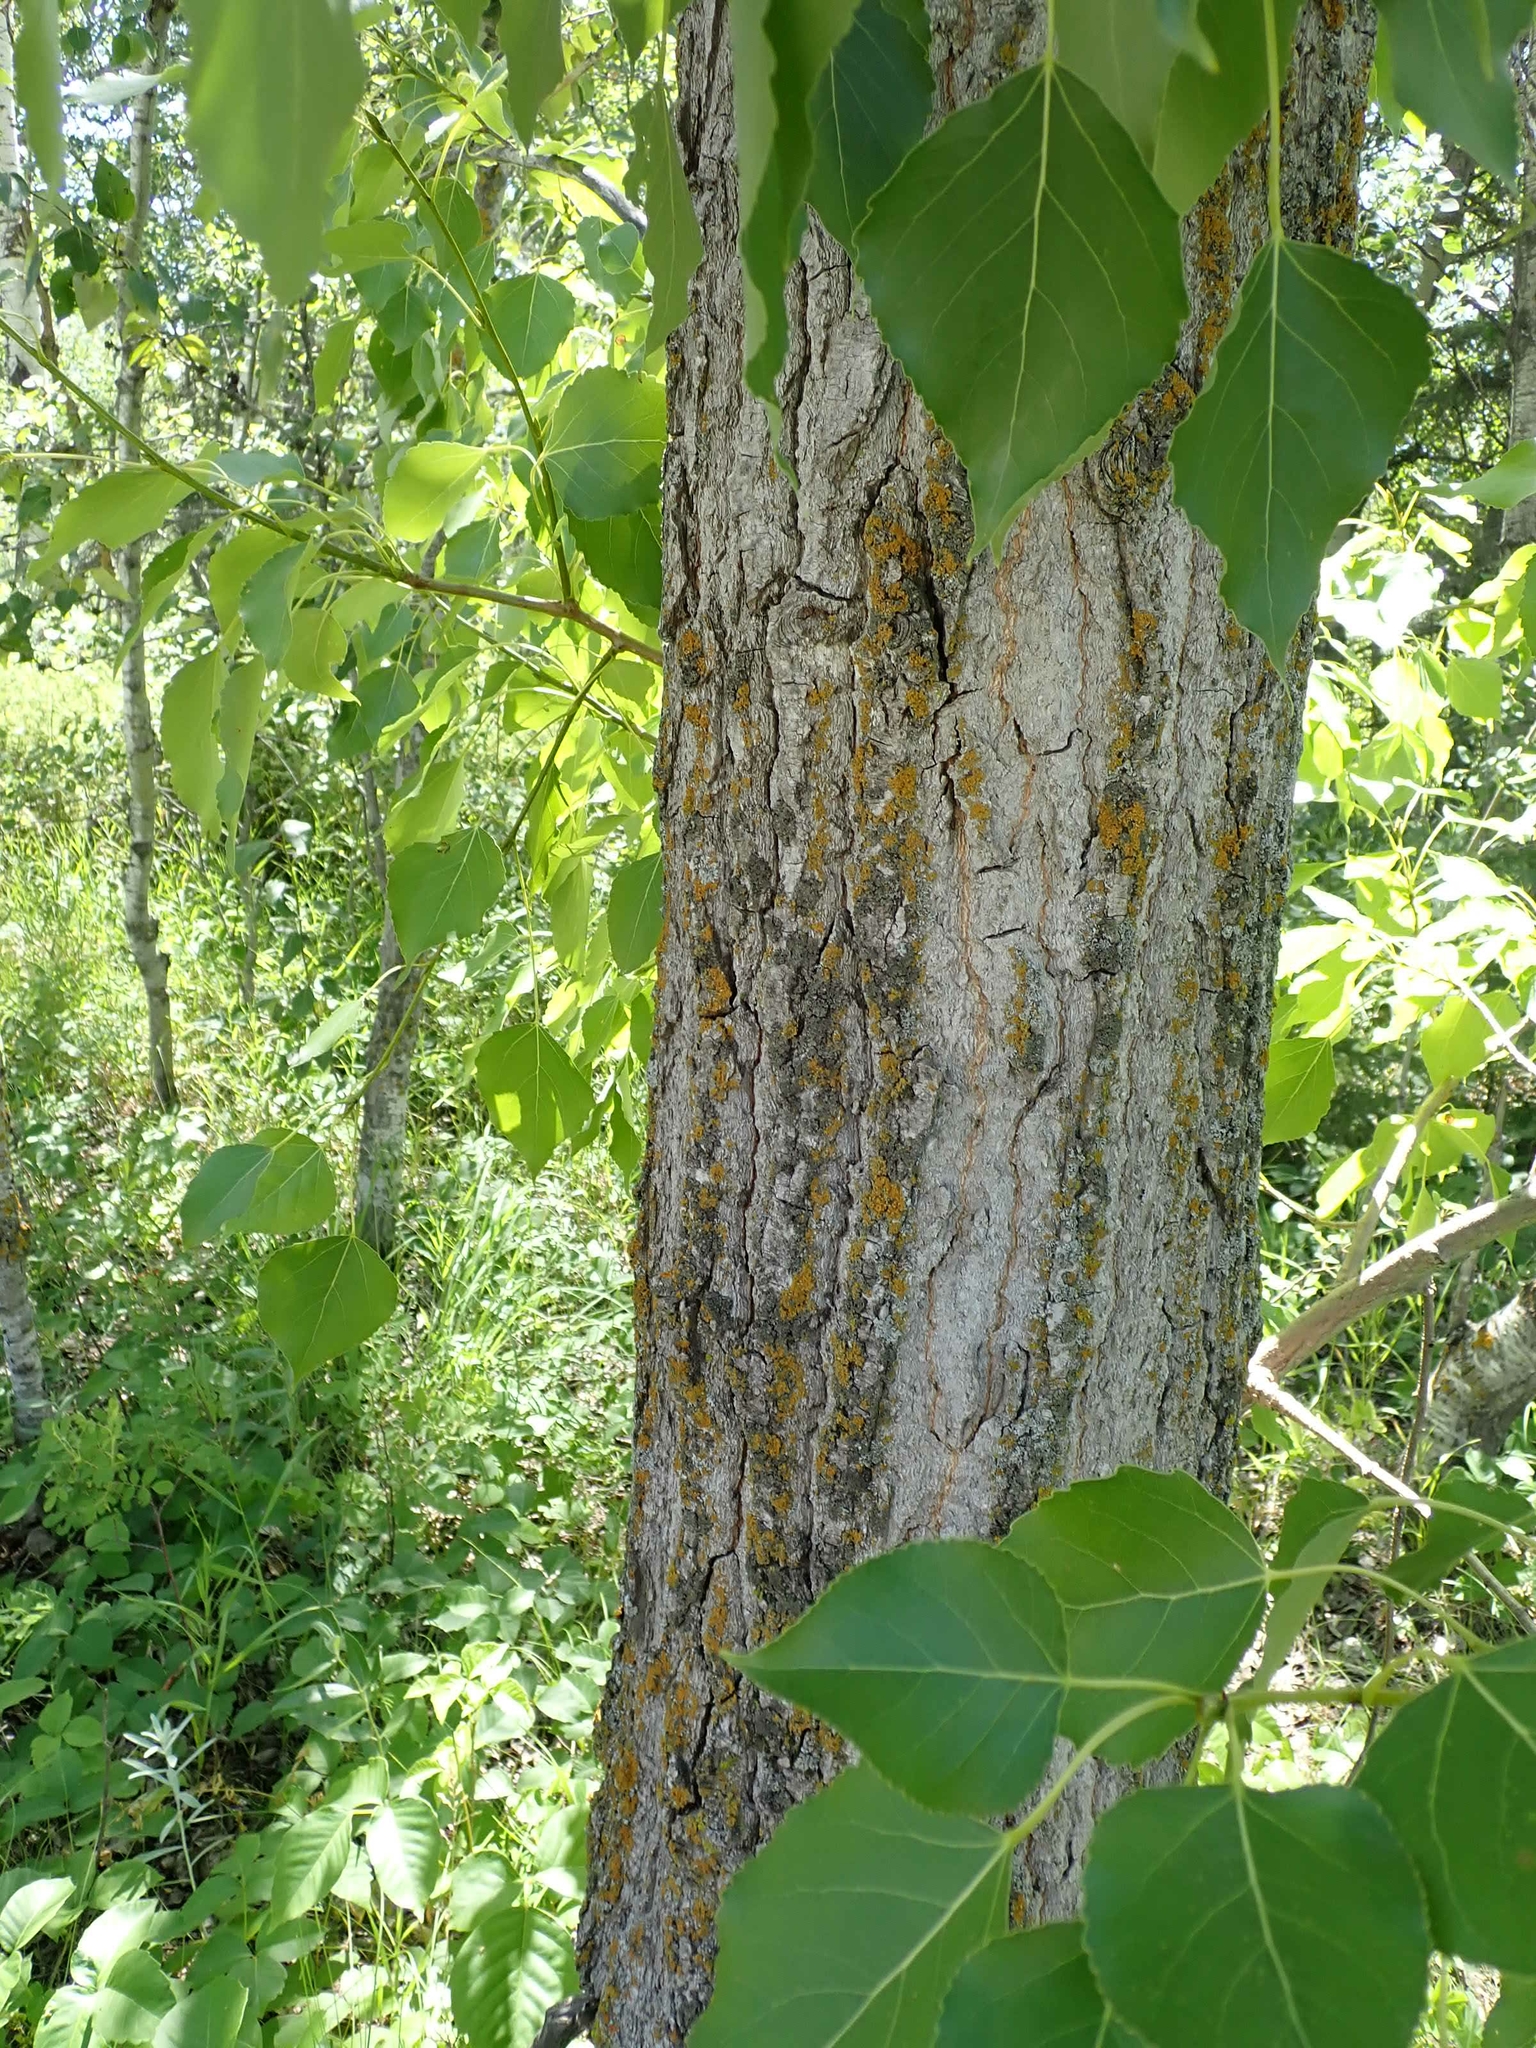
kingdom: Plantae
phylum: Tracheophyta
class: Magnoliopsida
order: Malpighiales
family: Salicaceae
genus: Populus
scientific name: Populus balsamifera
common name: Balsam poplar
